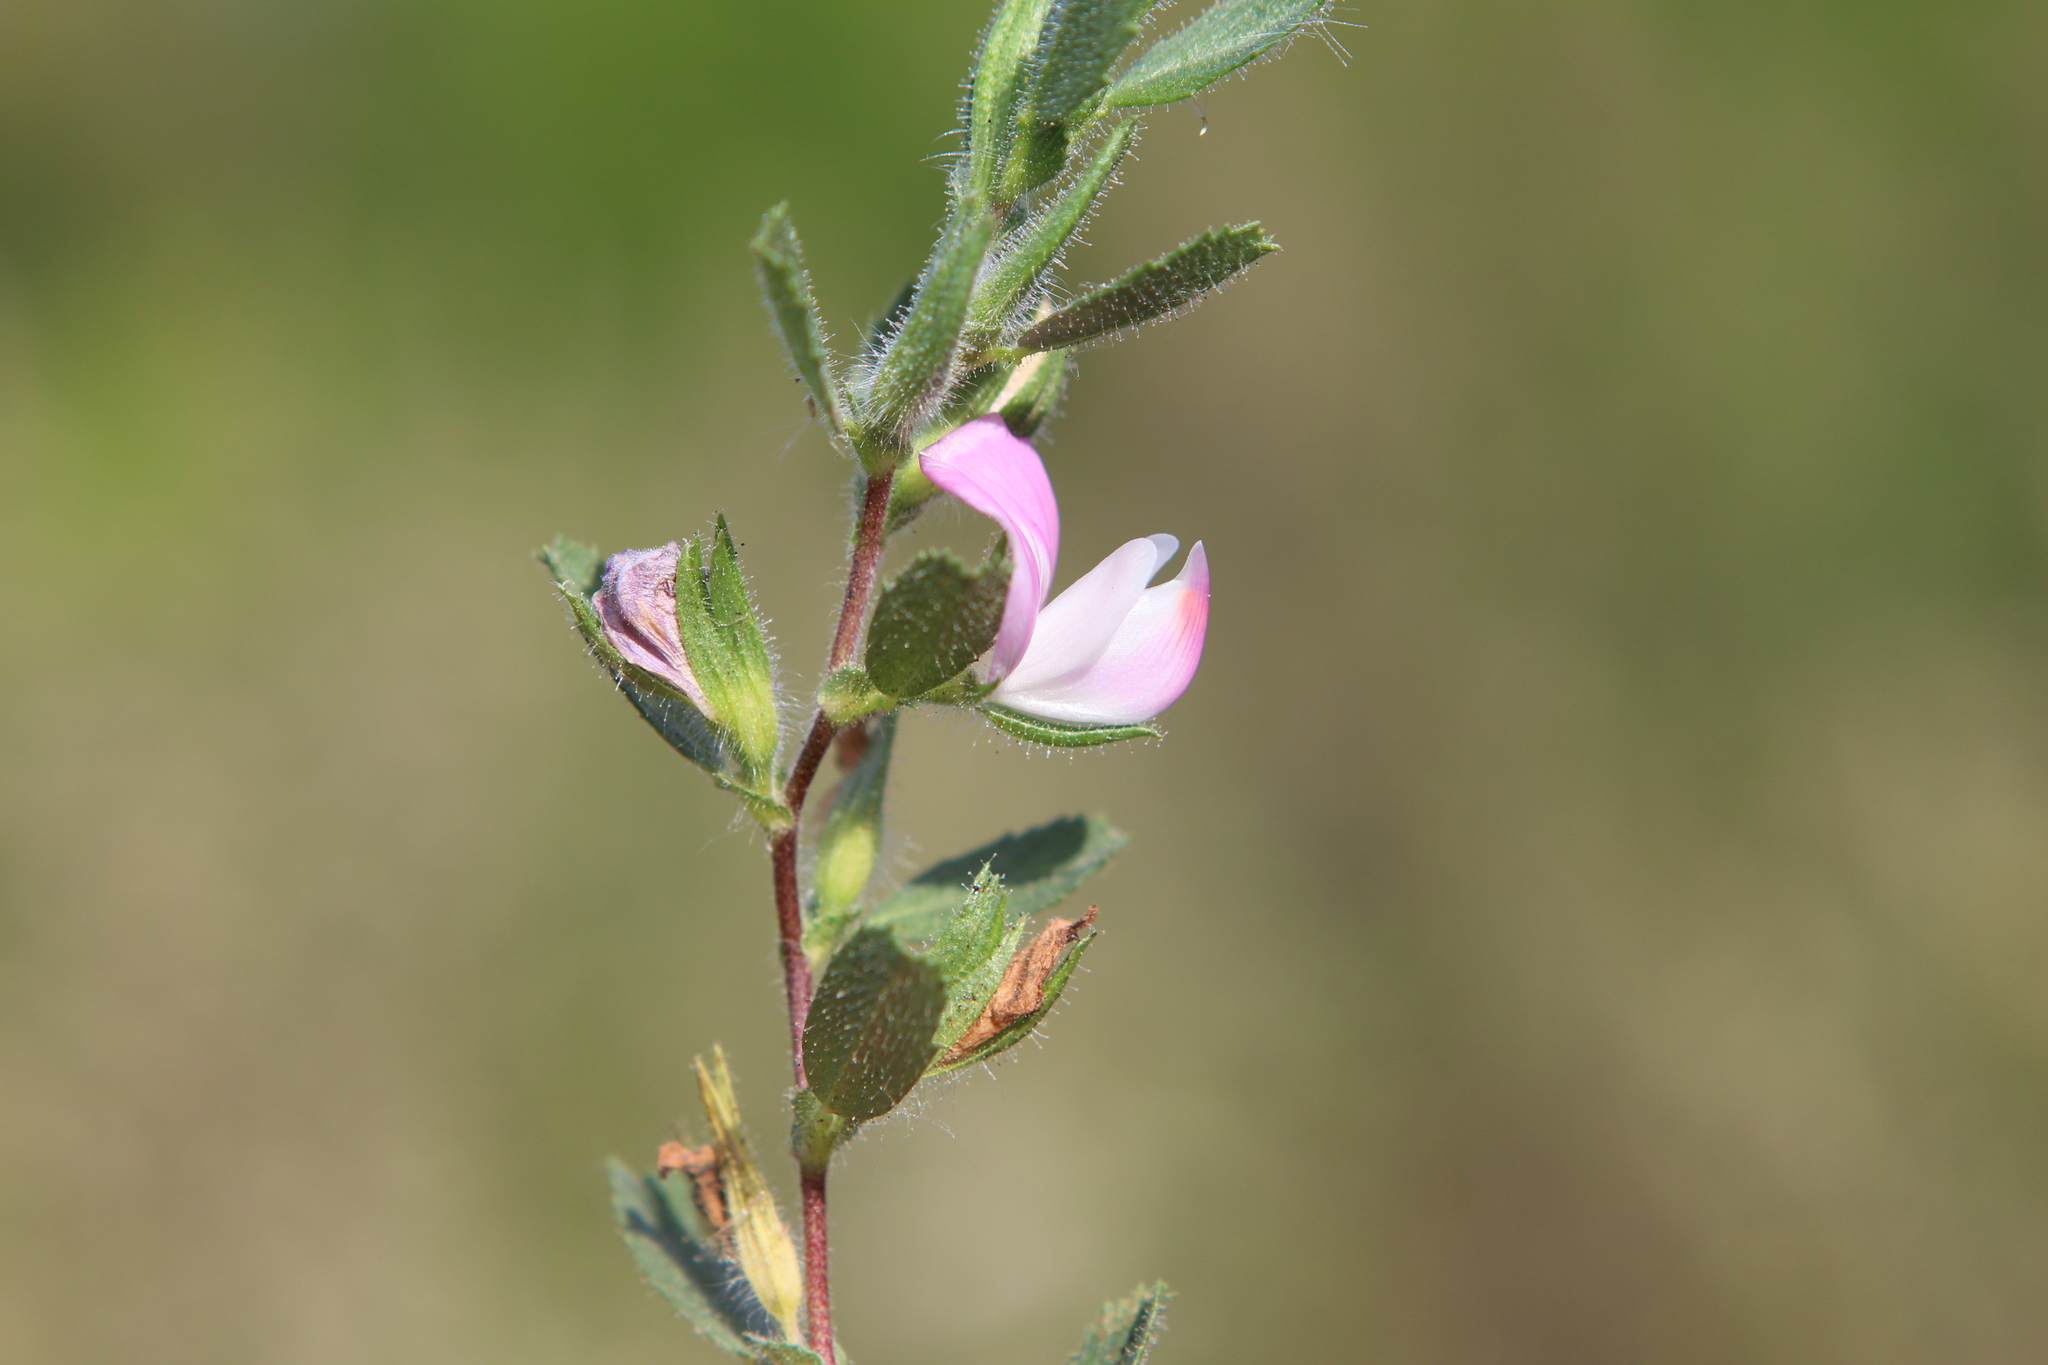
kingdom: Plantae
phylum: Tracheophyta
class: Magnoliopsida
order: Fabales
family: Fabaceae
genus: Ononis
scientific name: Ononis spinosa
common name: Spiny restharrow
